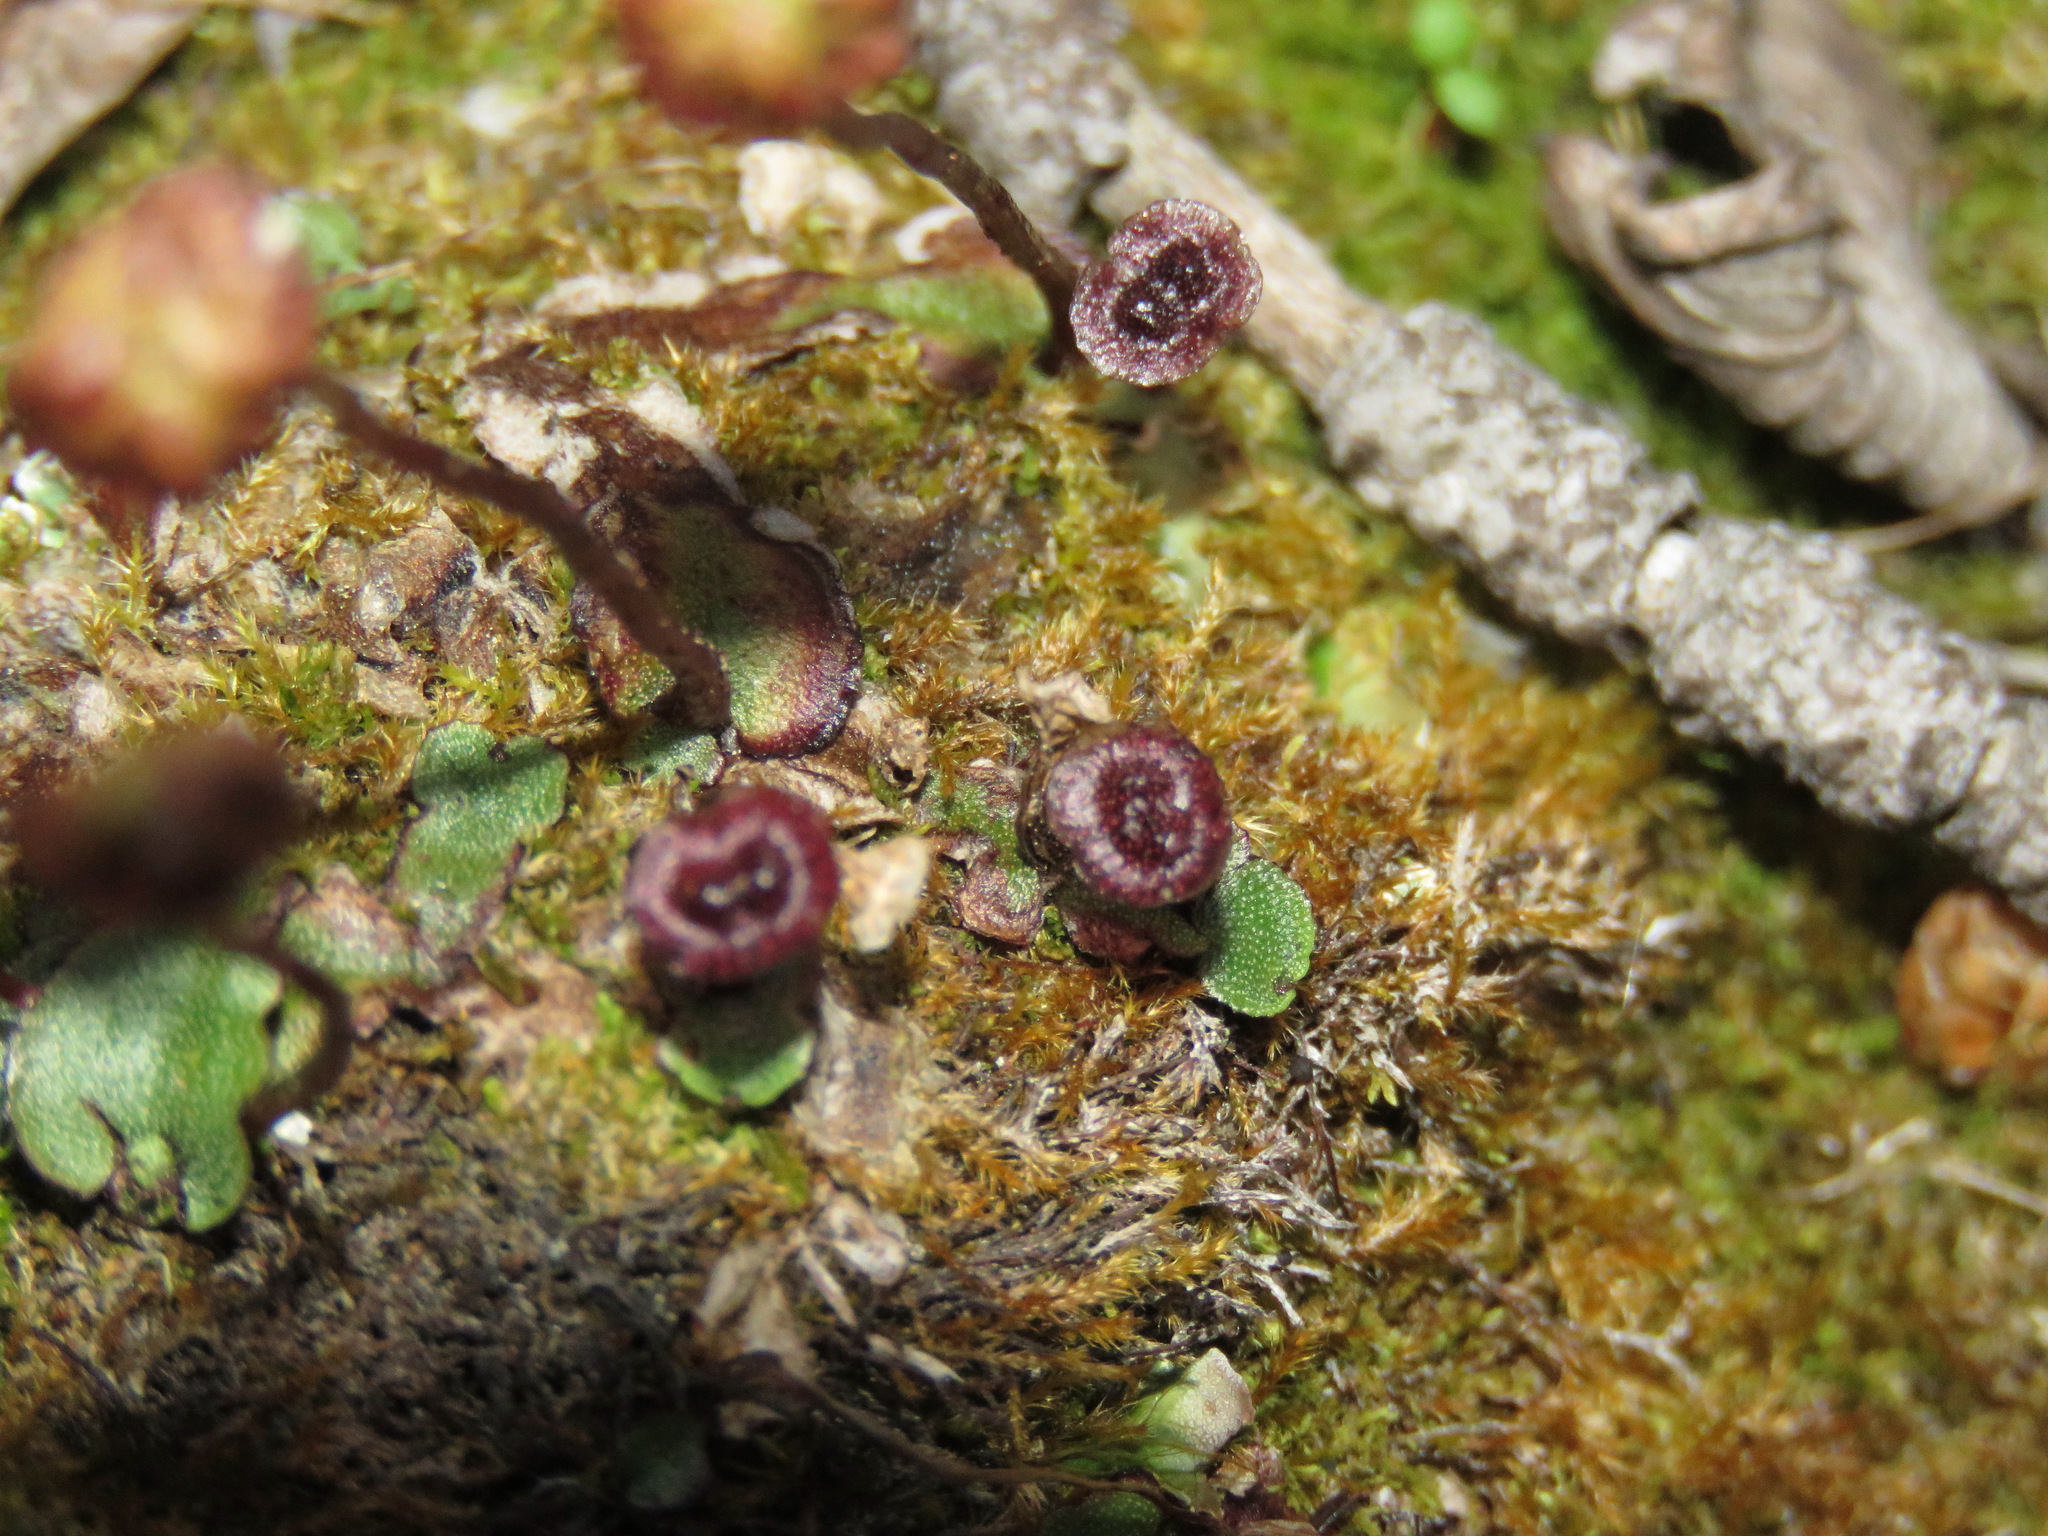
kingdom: Plantae
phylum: Marchantiophyta
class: Marchantiopsida
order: Marchantiales
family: Marchantiaceae
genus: Marchantia
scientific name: Marchantia quadrata
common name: Narrow mushroom-headed liverwort
